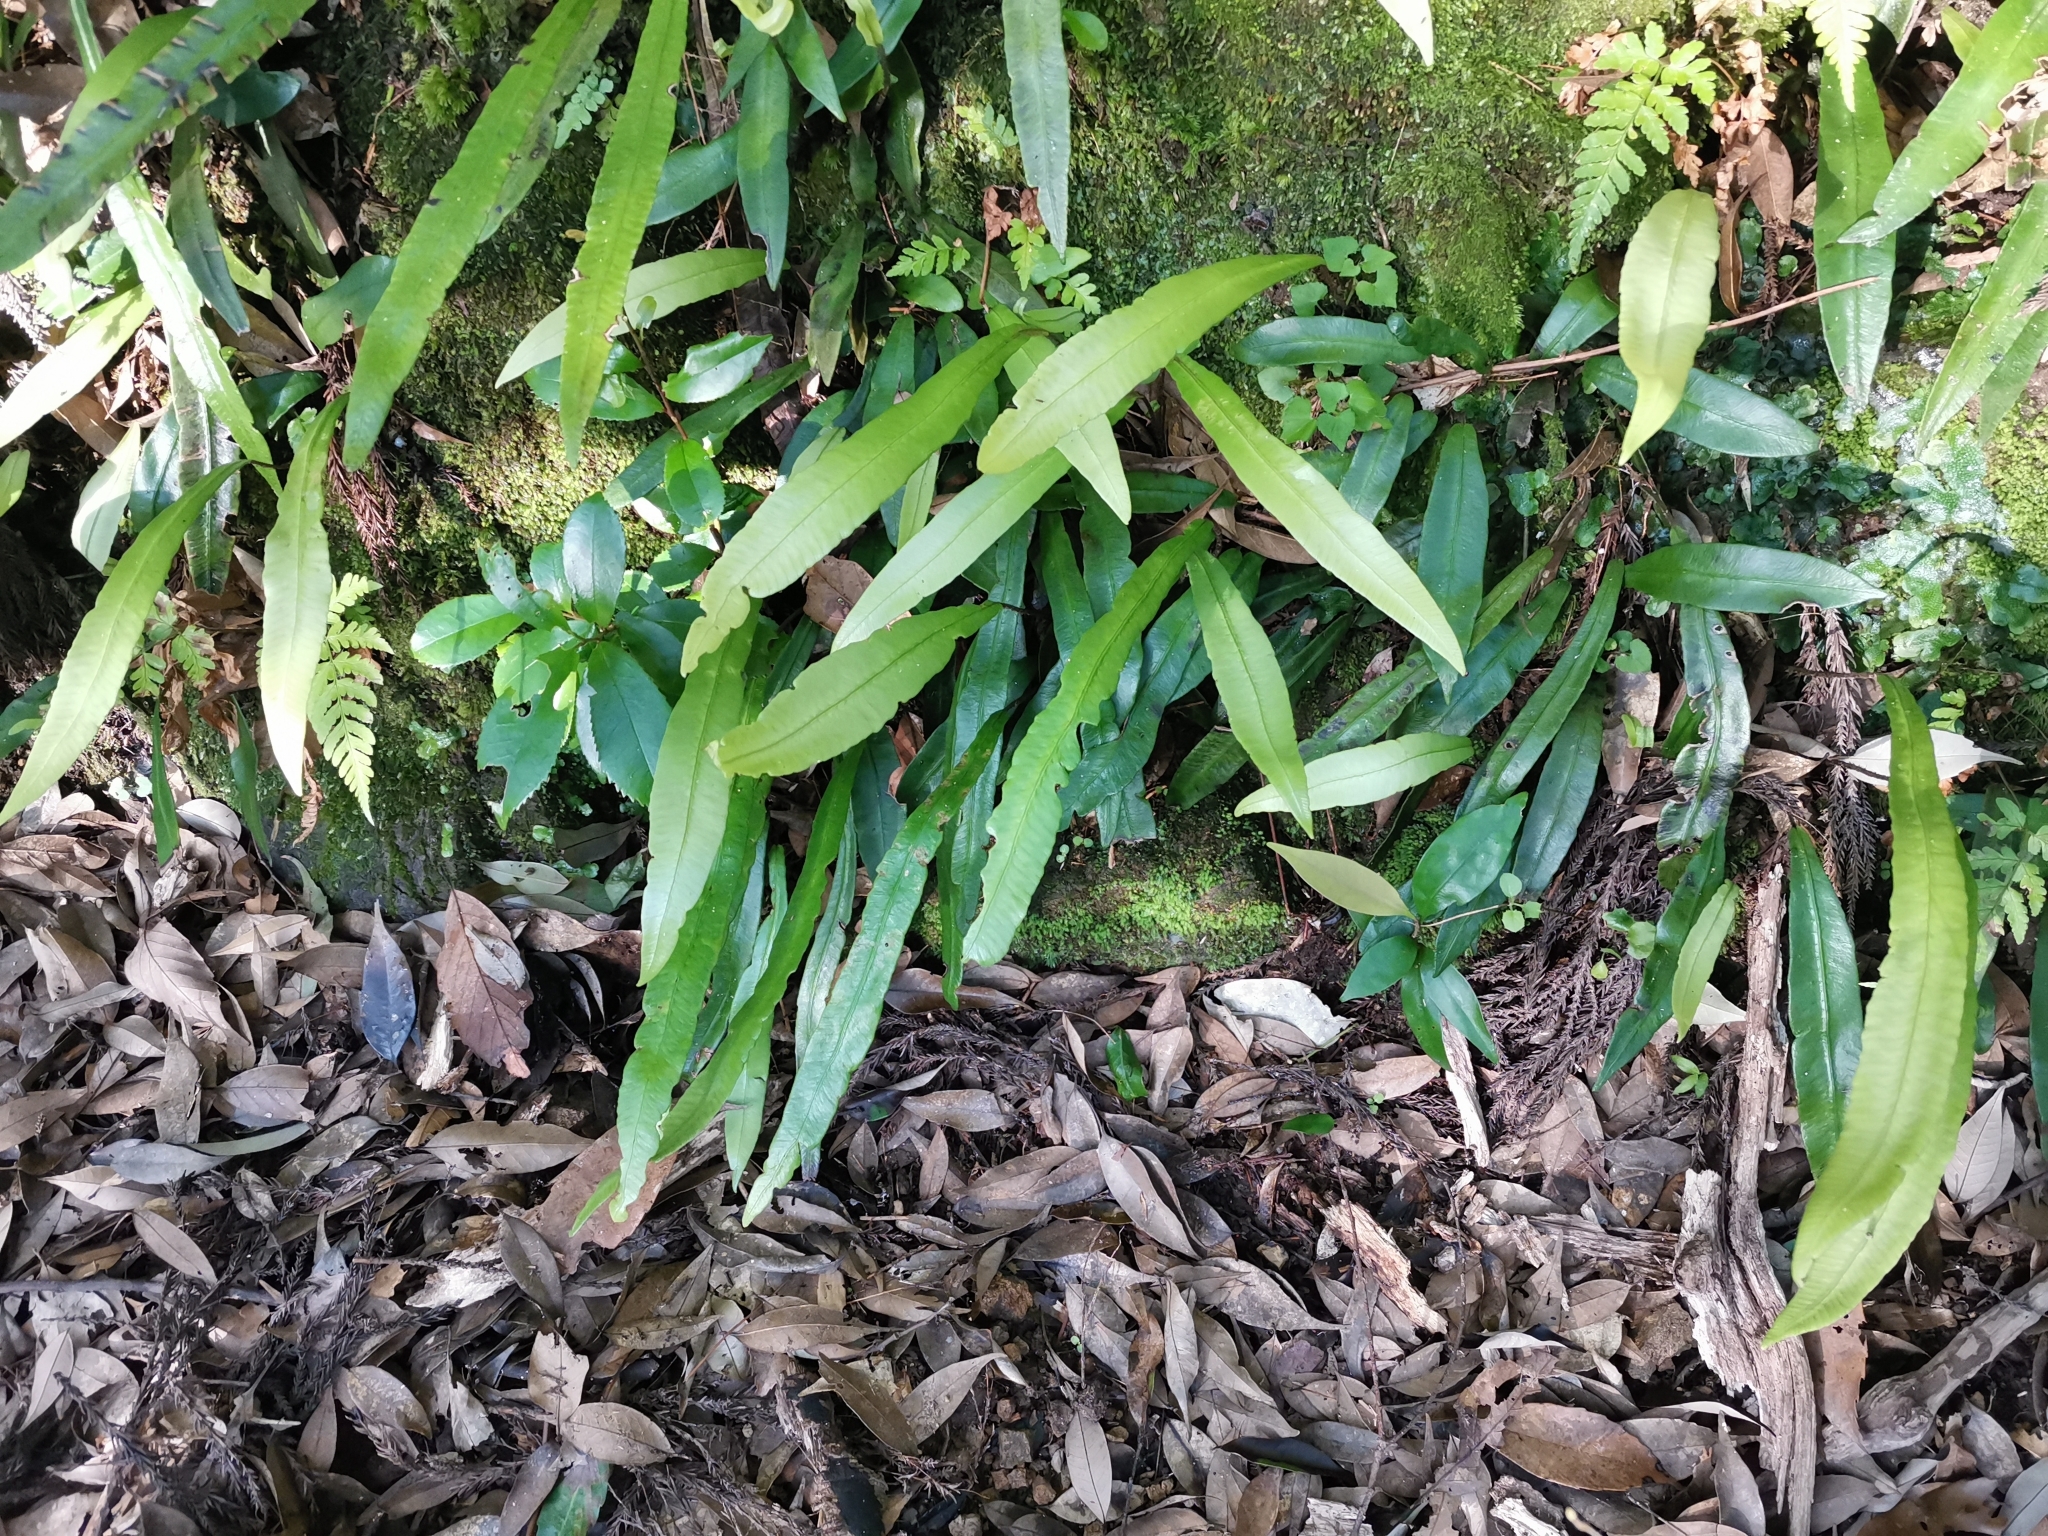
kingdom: Plantae
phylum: Tracheophyta
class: Polypodiopsida
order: Polypodiales
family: Athyriaceae
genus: Deparia
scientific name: Deparia lancea
